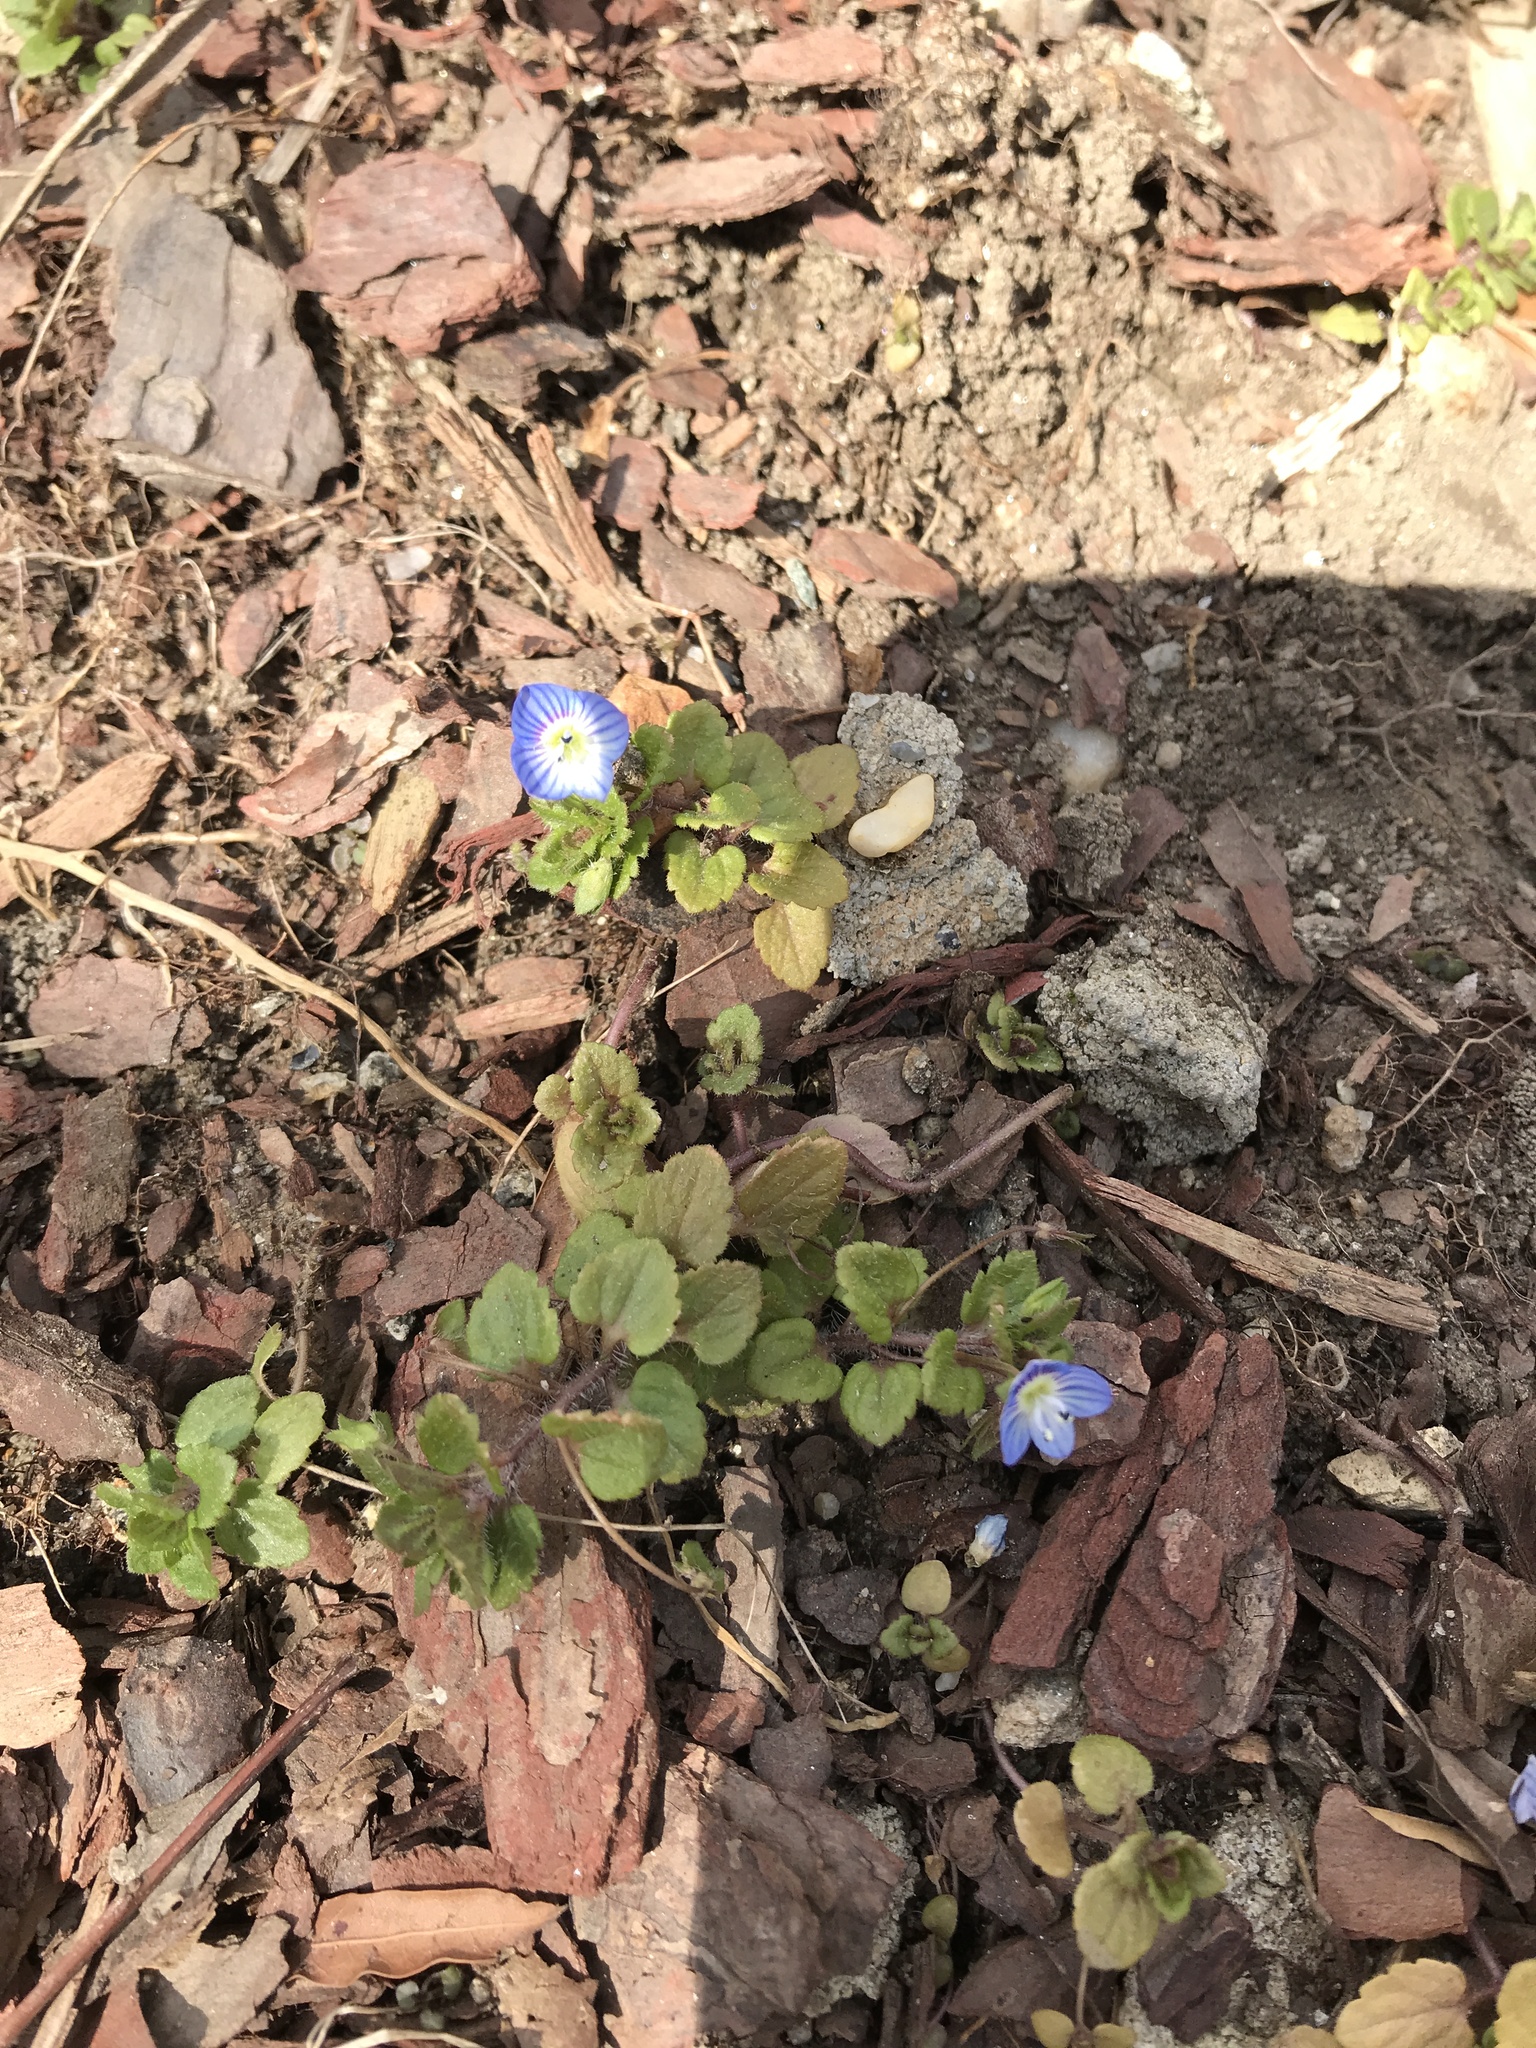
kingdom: Plantae
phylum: Tracheophyta
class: Magnoliopsida
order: Lamiales
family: Plantaginaceae
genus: Veronica
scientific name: Veronica persica
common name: Common field-speedwell
